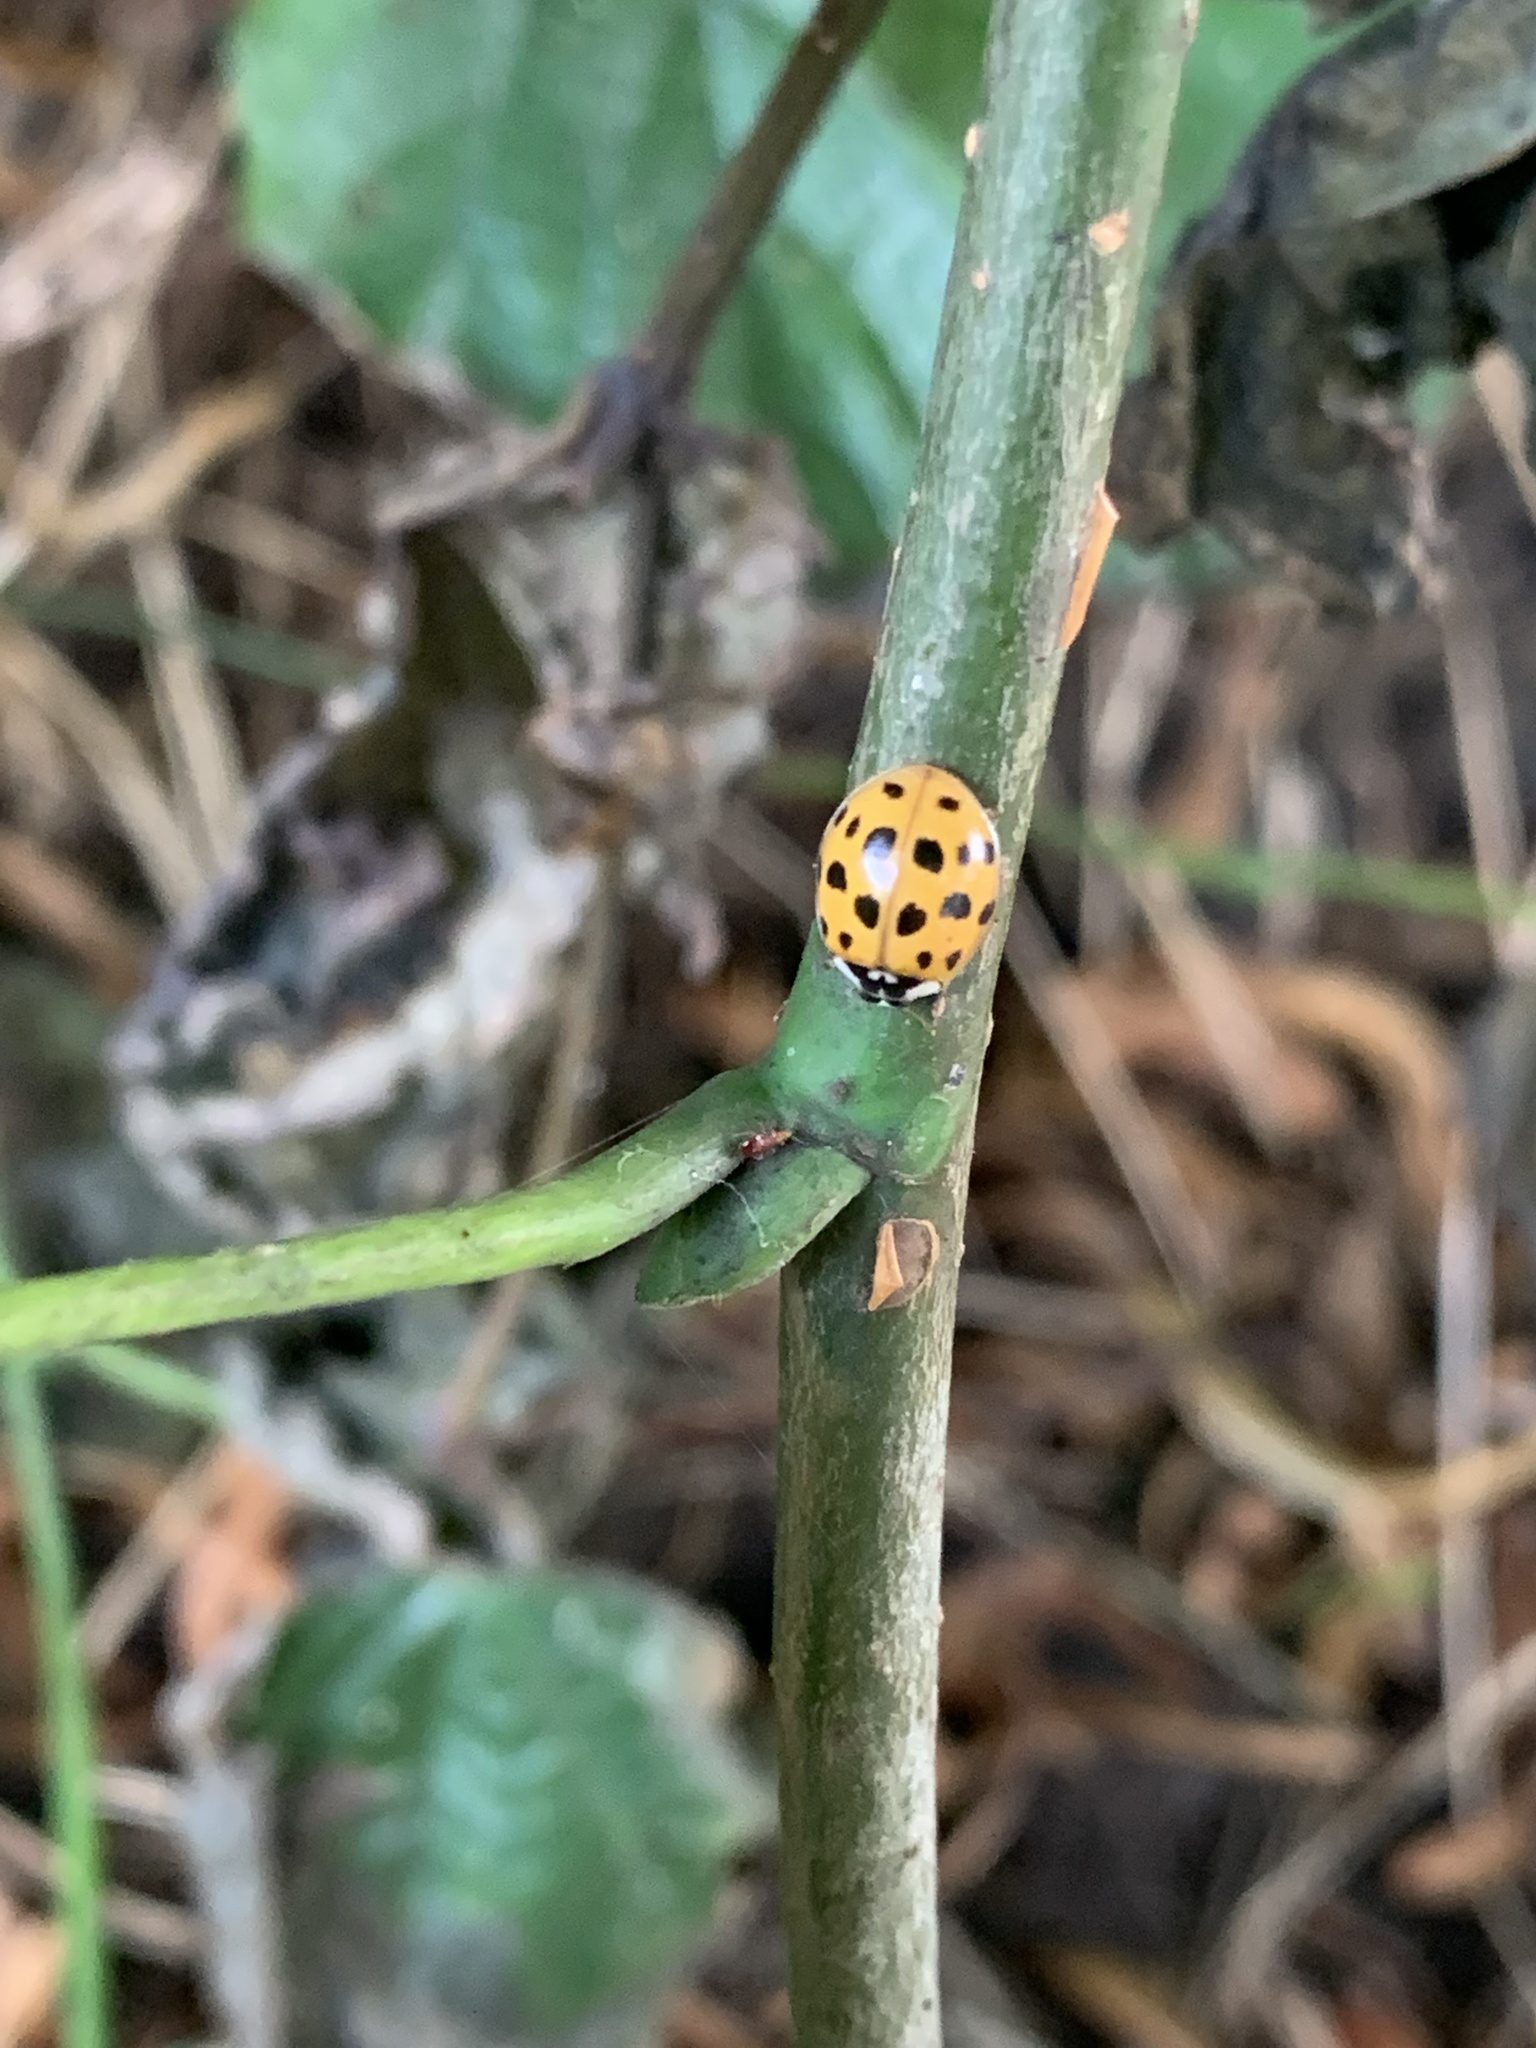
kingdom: Animalia
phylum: Arthropoda
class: Insecta
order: Coleoptera
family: Coccinellidae
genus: Harmonia
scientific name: Harmonia axyridis
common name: Harlequin ladybird
